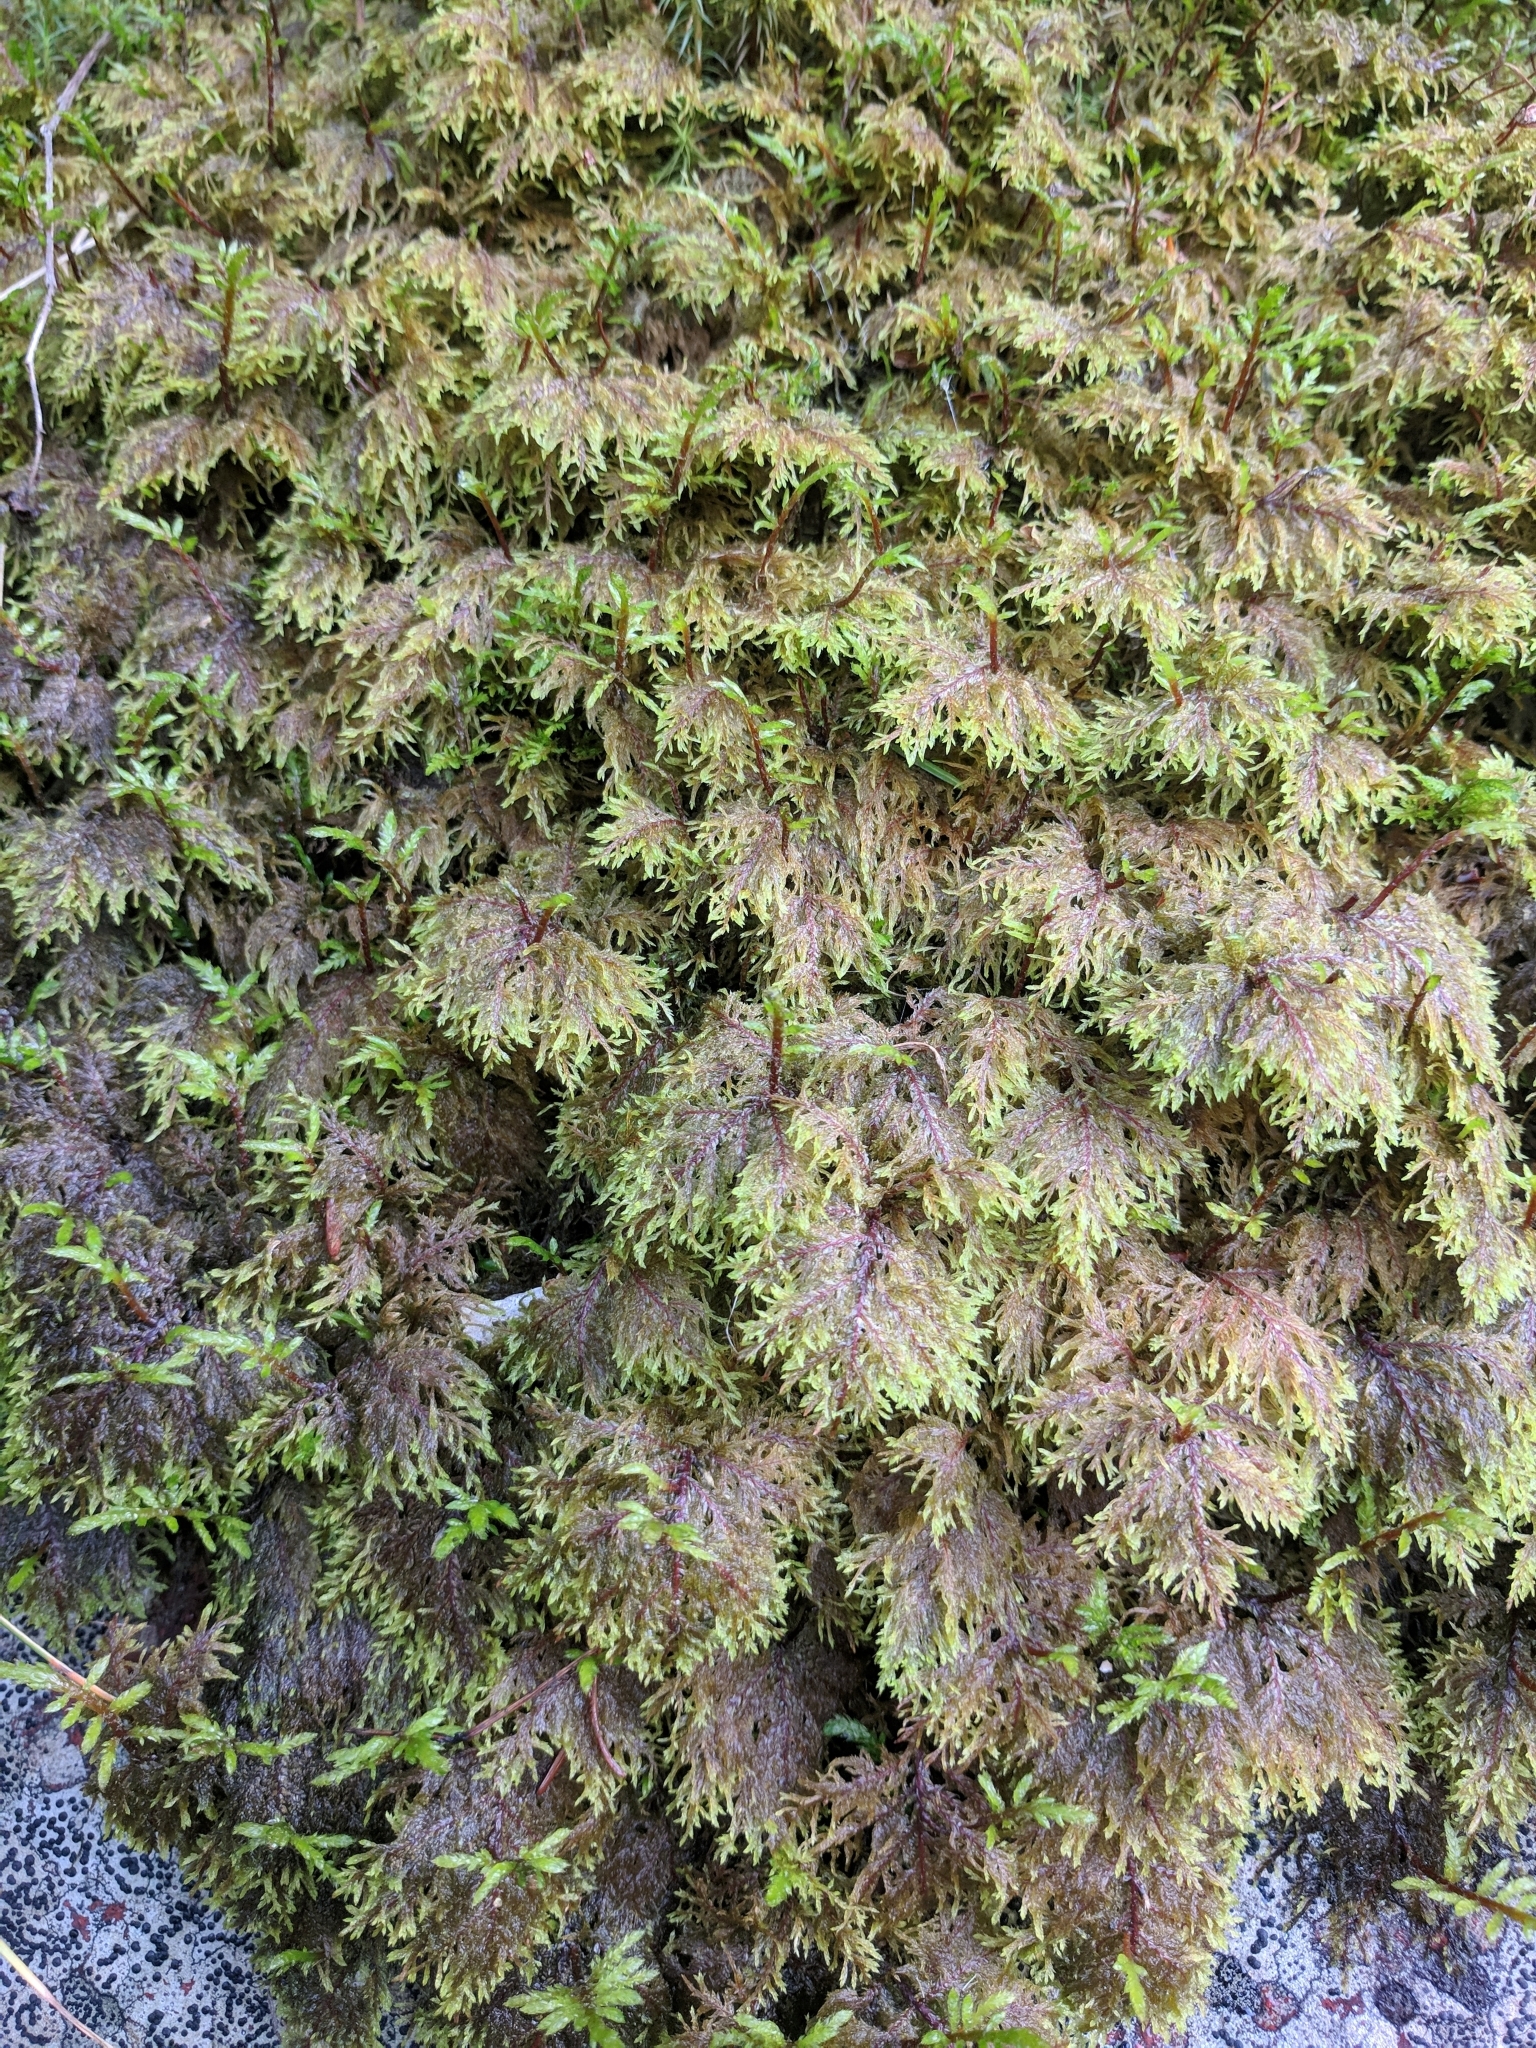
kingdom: Plantae
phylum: Bryophyta
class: Bryopsida
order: Hypnales
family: Hylocomiaceae
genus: Hylocomium
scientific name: Hylocomium splendens
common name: Stairstep moss
